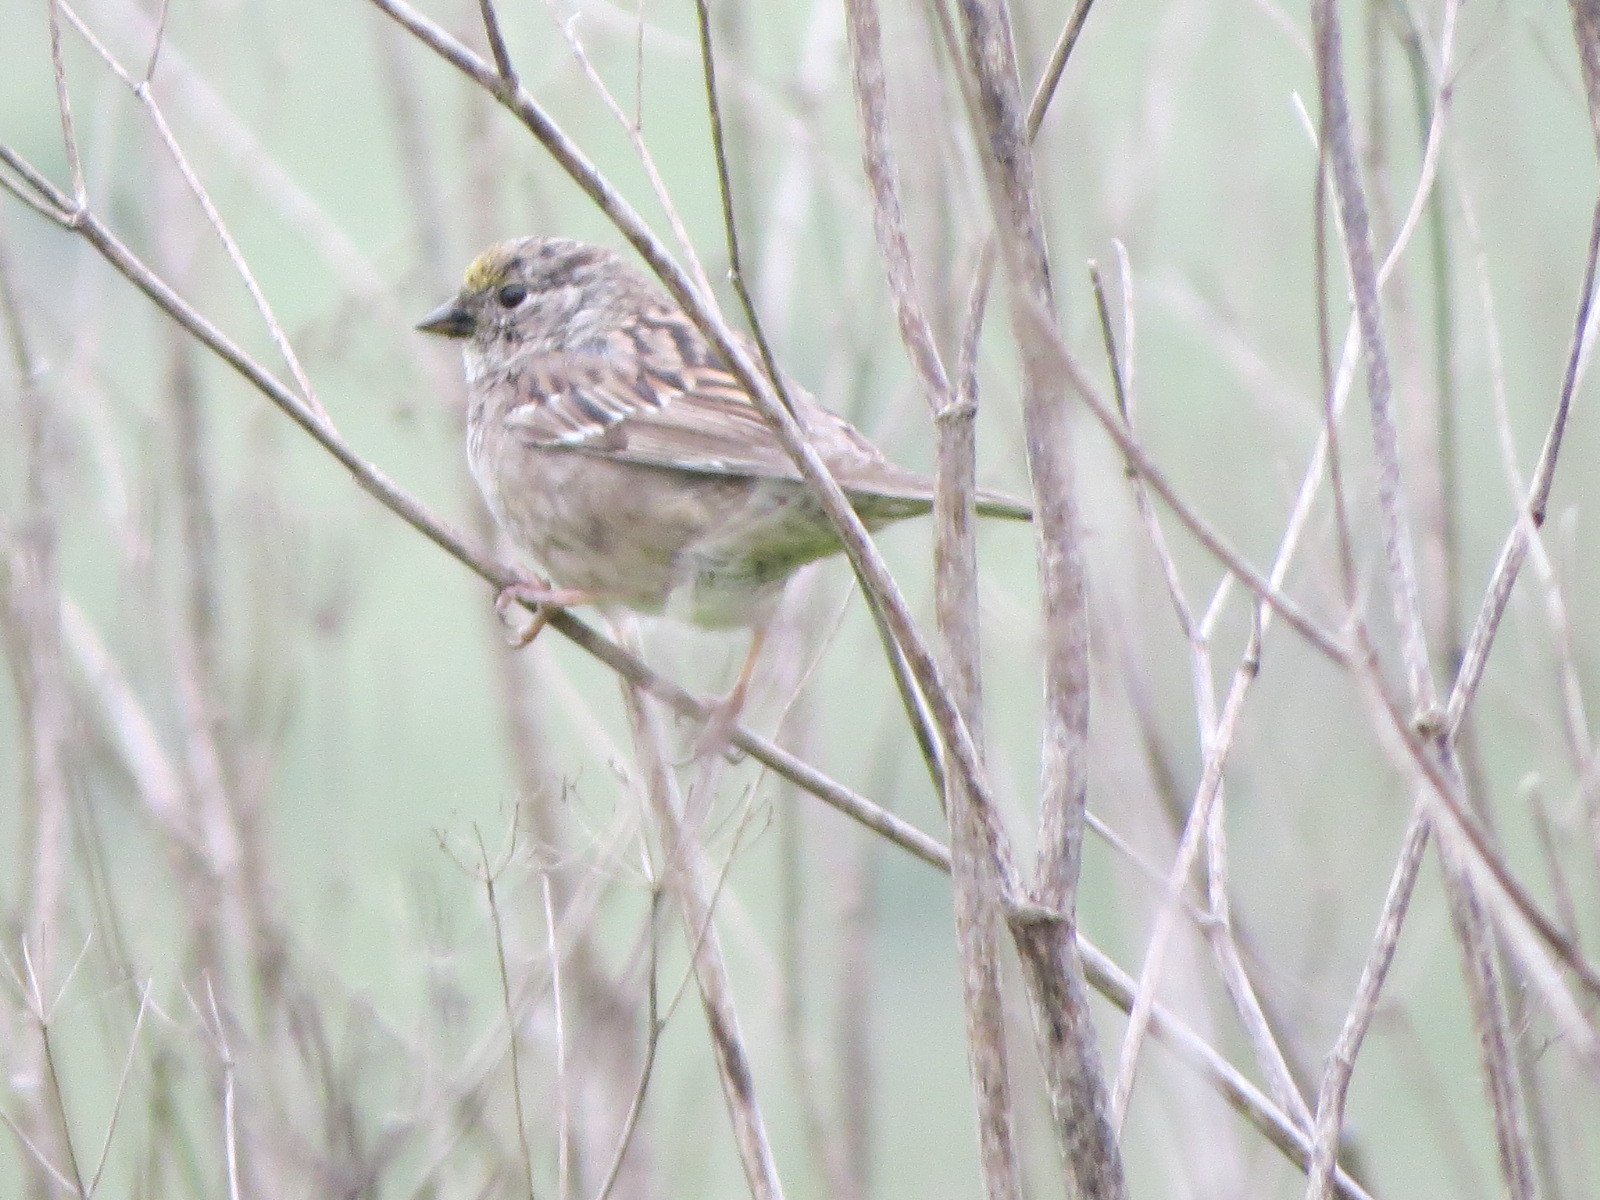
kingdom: Animalia
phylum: Chordata
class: Aves
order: Passeriformes
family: Passerellidae
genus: Zonotrichia
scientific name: Zonotrichia atricapilla
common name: Golden-crowned sparrow
